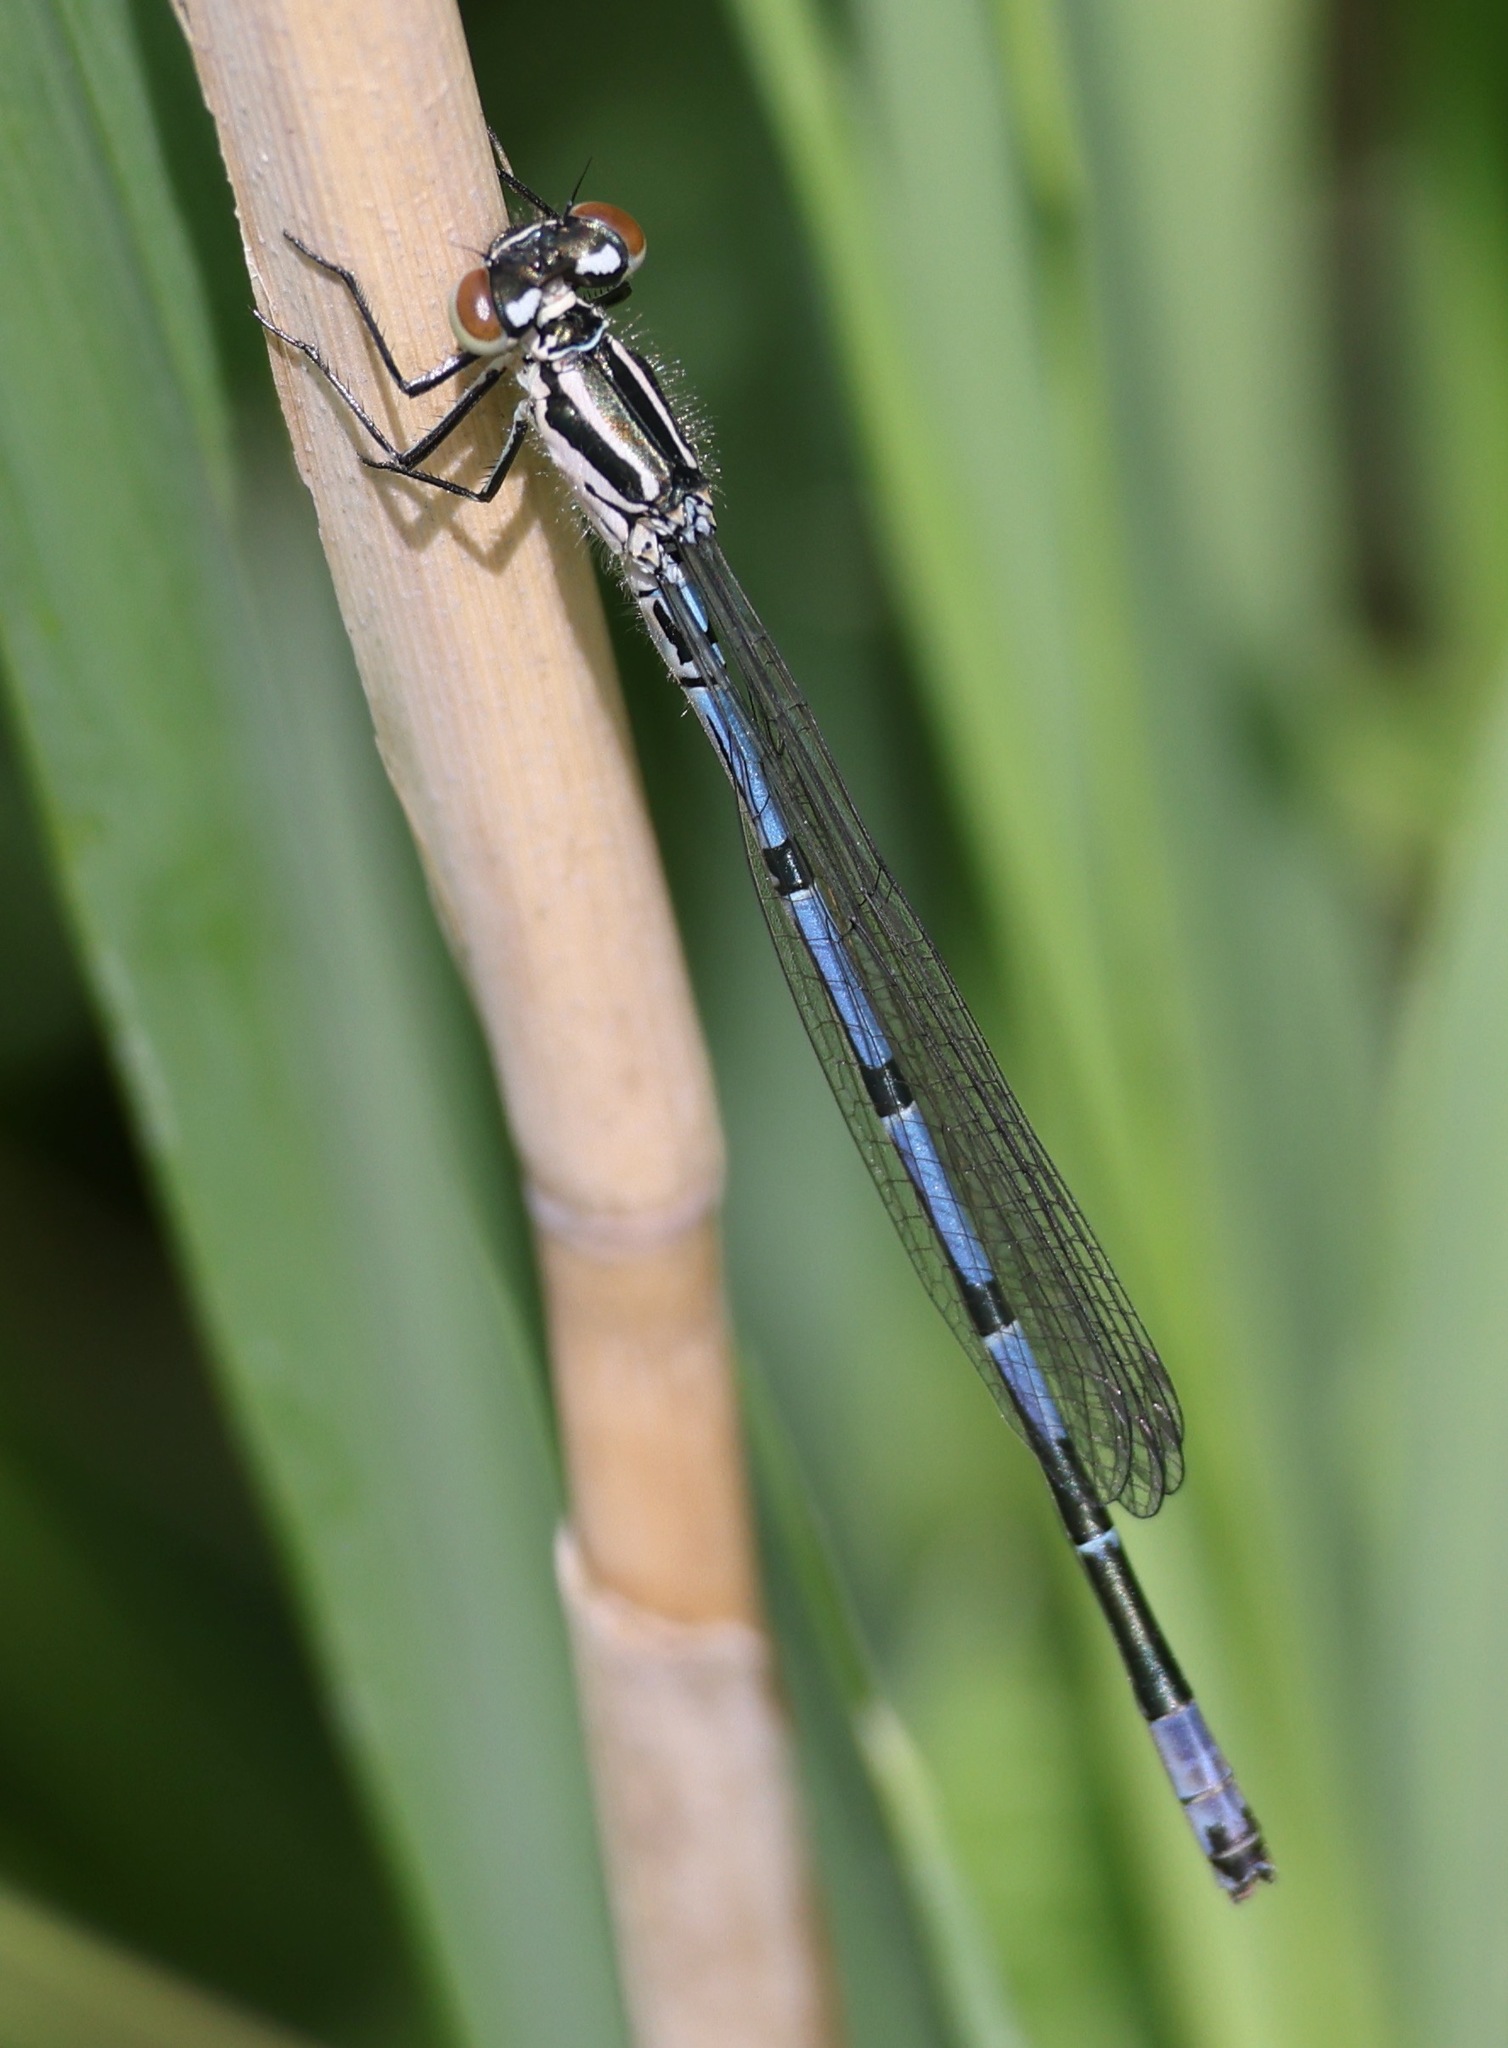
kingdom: Animalia
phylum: Arthropoda
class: Insecta
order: Odonata
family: Coenagrionidae
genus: Coenagrion
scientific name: Coenagrion puella
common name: Azure damselfly
